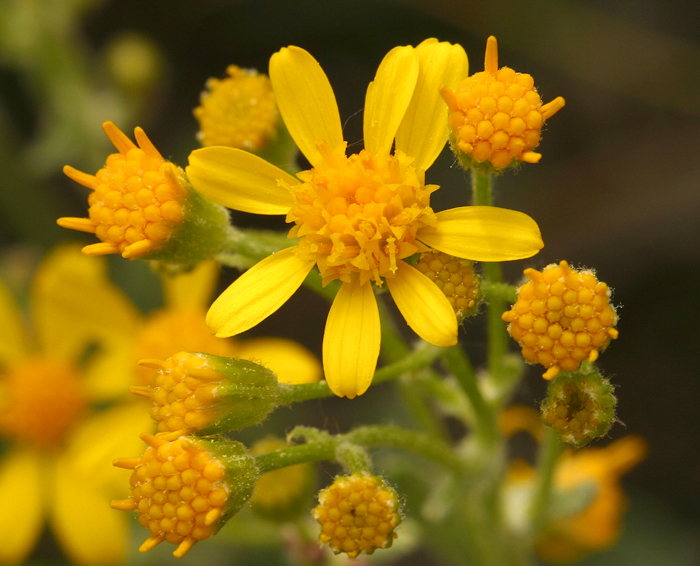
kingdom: Plantae
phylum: Tracheophyta
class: Magnoliopsida
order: Asterales
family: Asteraceae
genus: Packera
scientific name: Packera cana
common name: Woolly groundsel
